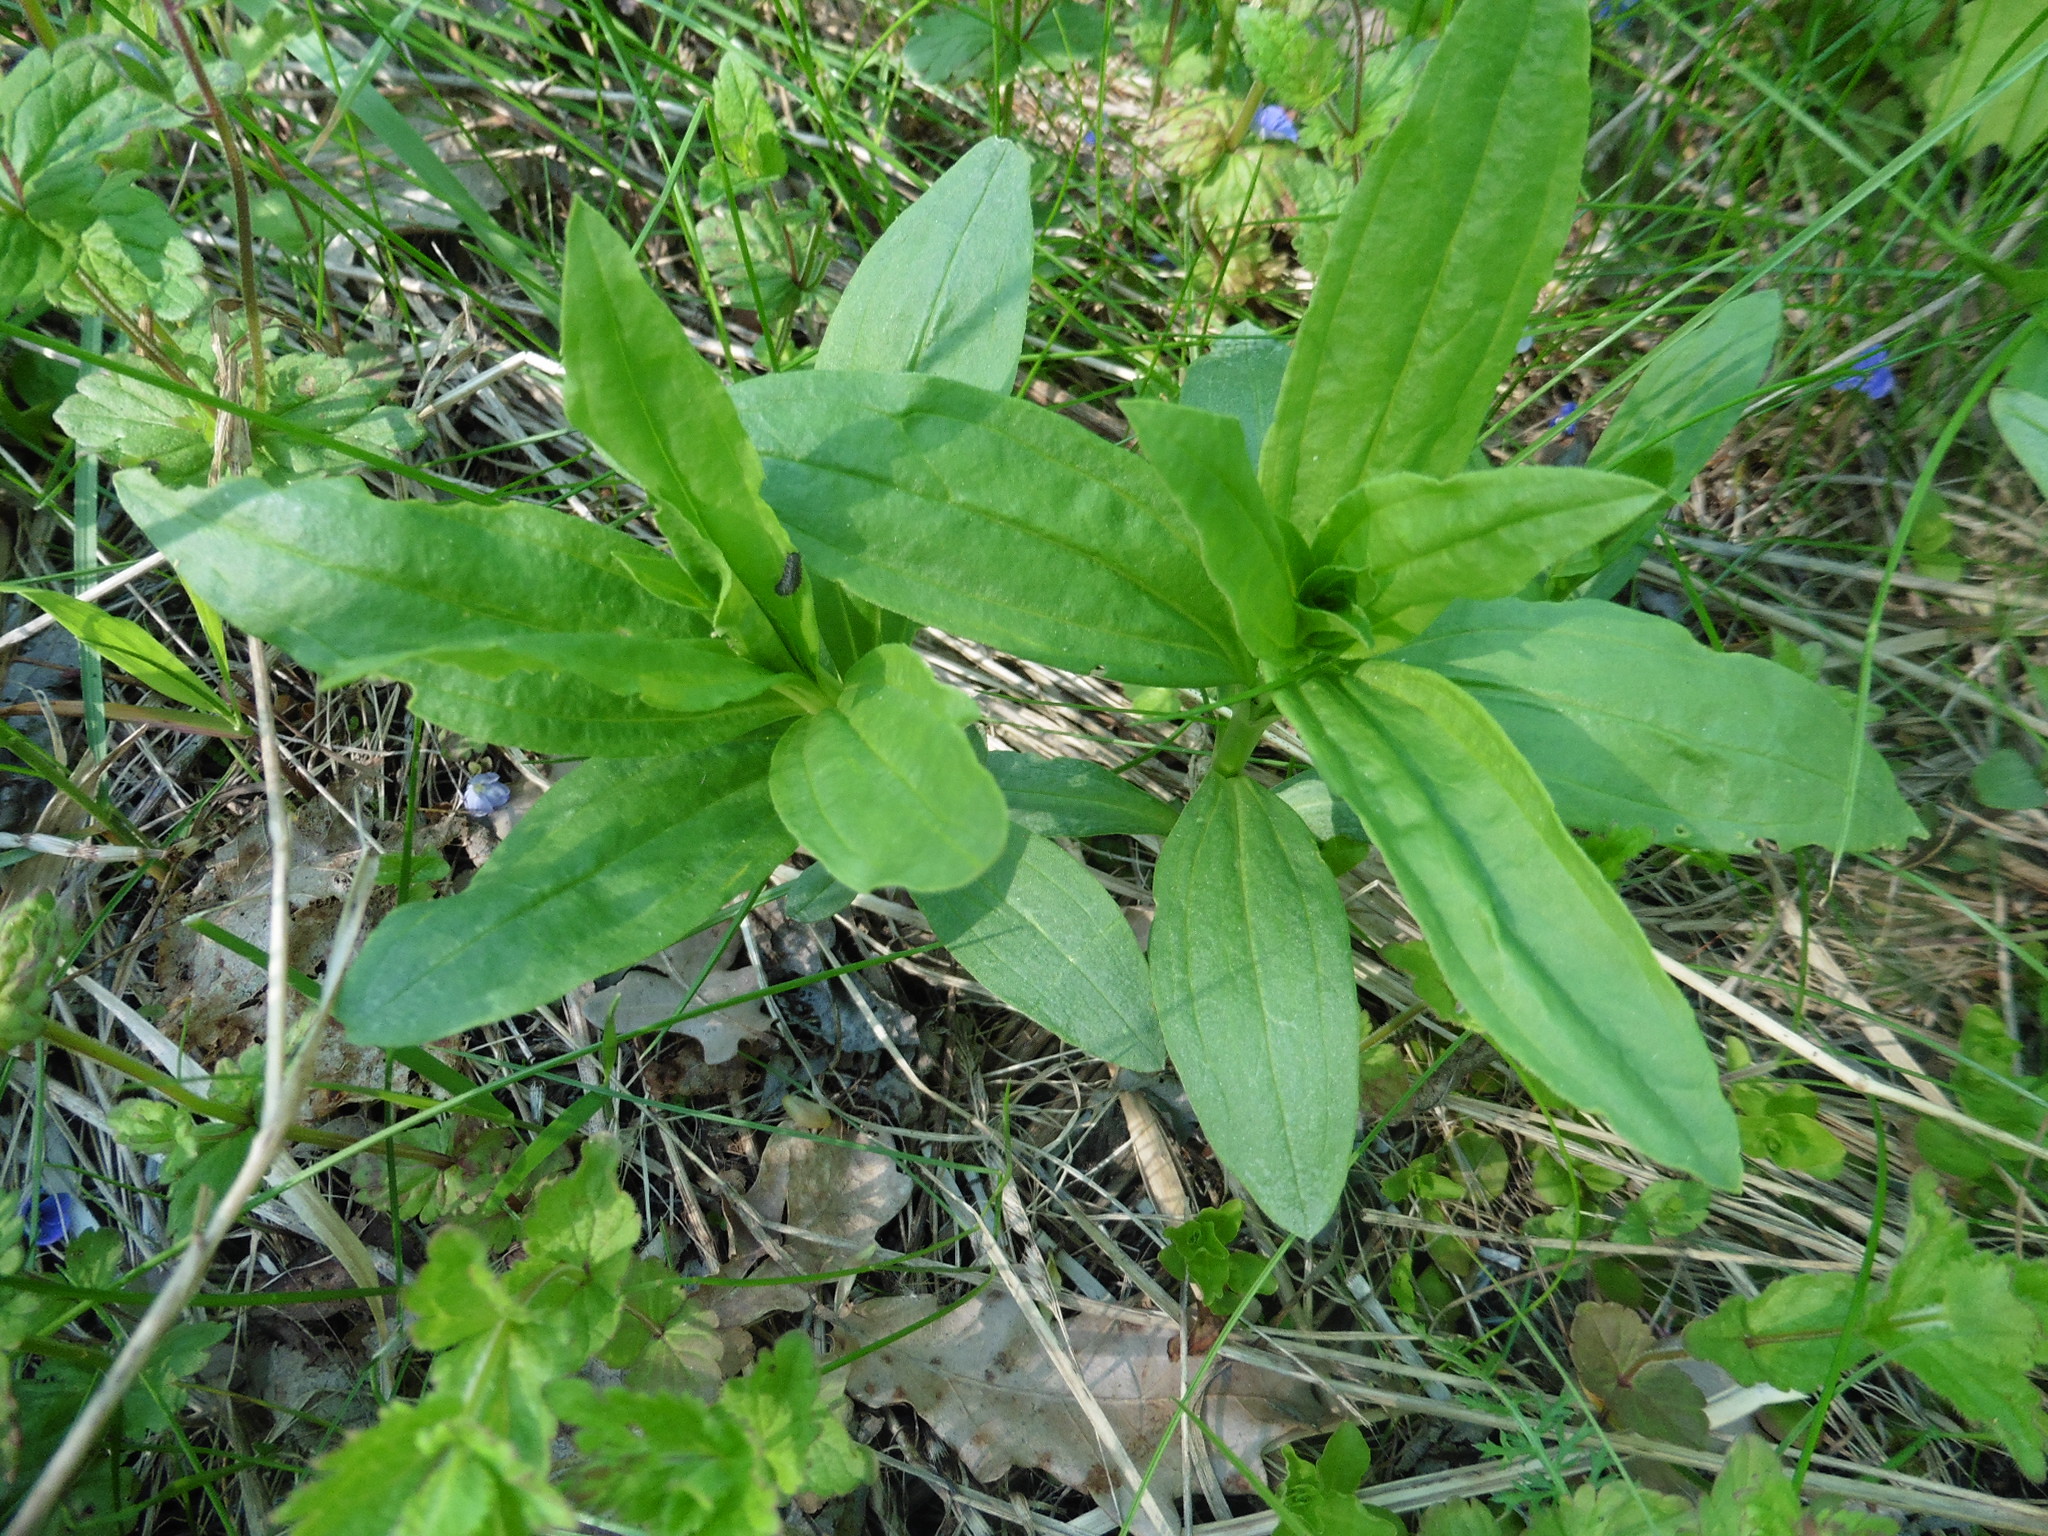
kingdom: Plantae
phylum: Tracheophyta
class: Magnoliopsida
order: Caryophyllales
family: Caryophyllaceae
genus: Saponaria
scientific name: Saponaria officinalis
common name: Soapwort
